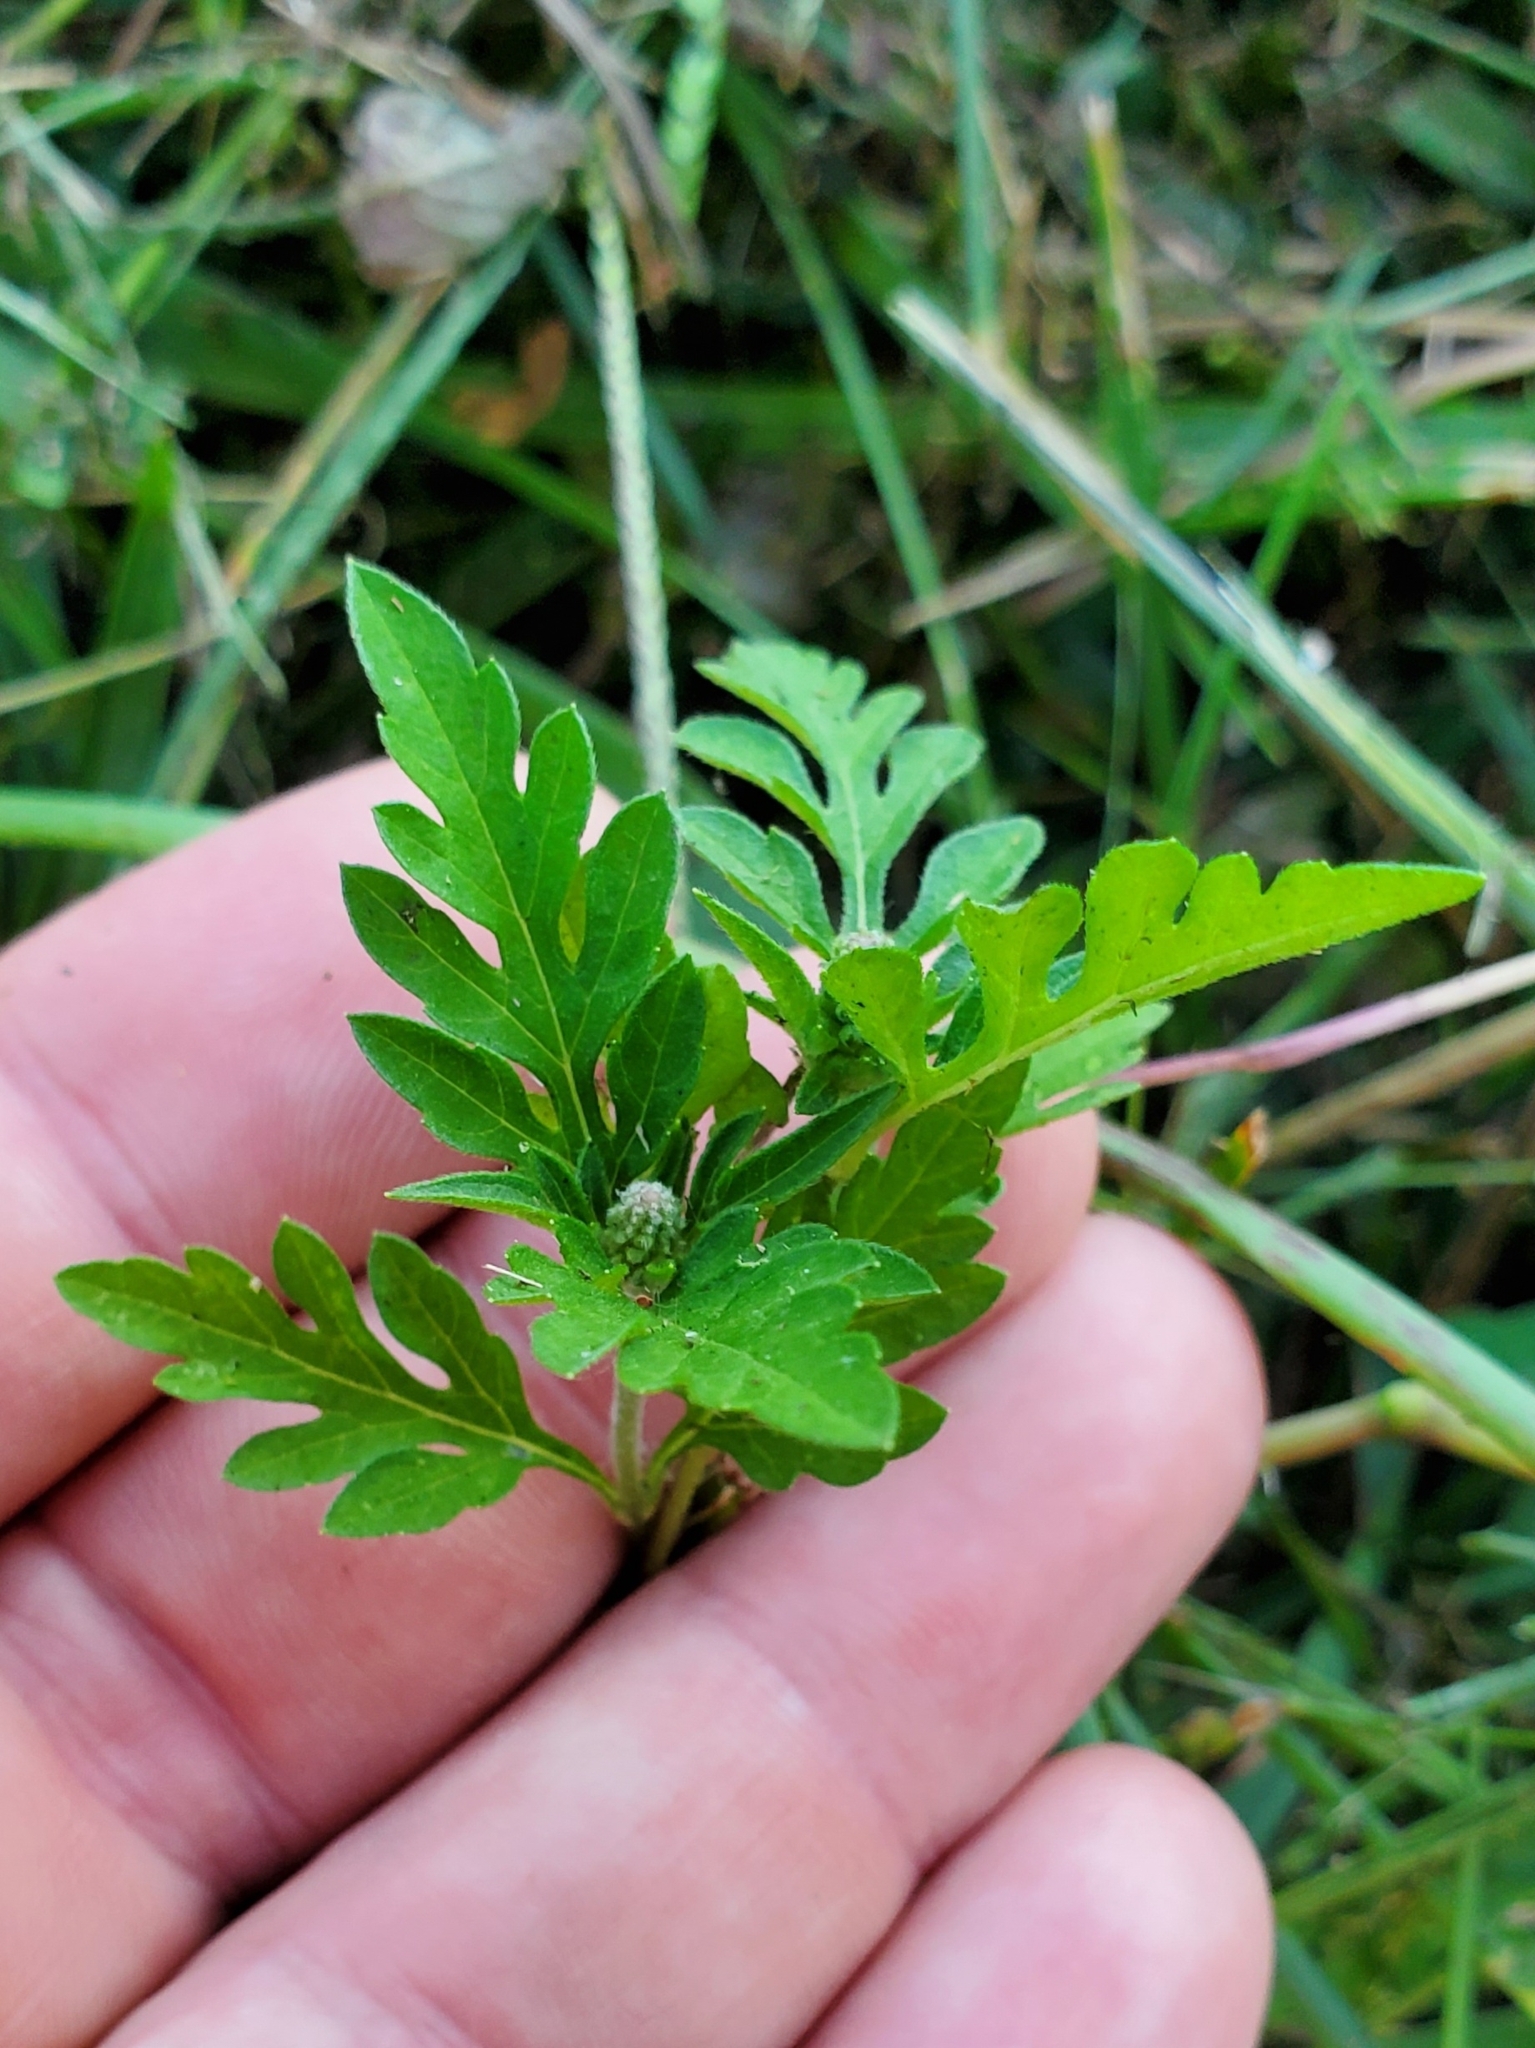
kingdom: Plantae
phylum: Tracheophyta
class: Magnoliopsida
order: Asterales
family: Asteraceae
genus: Ambrosia
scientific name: Ambrosia artemisiifolia
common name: Annual ragweed
